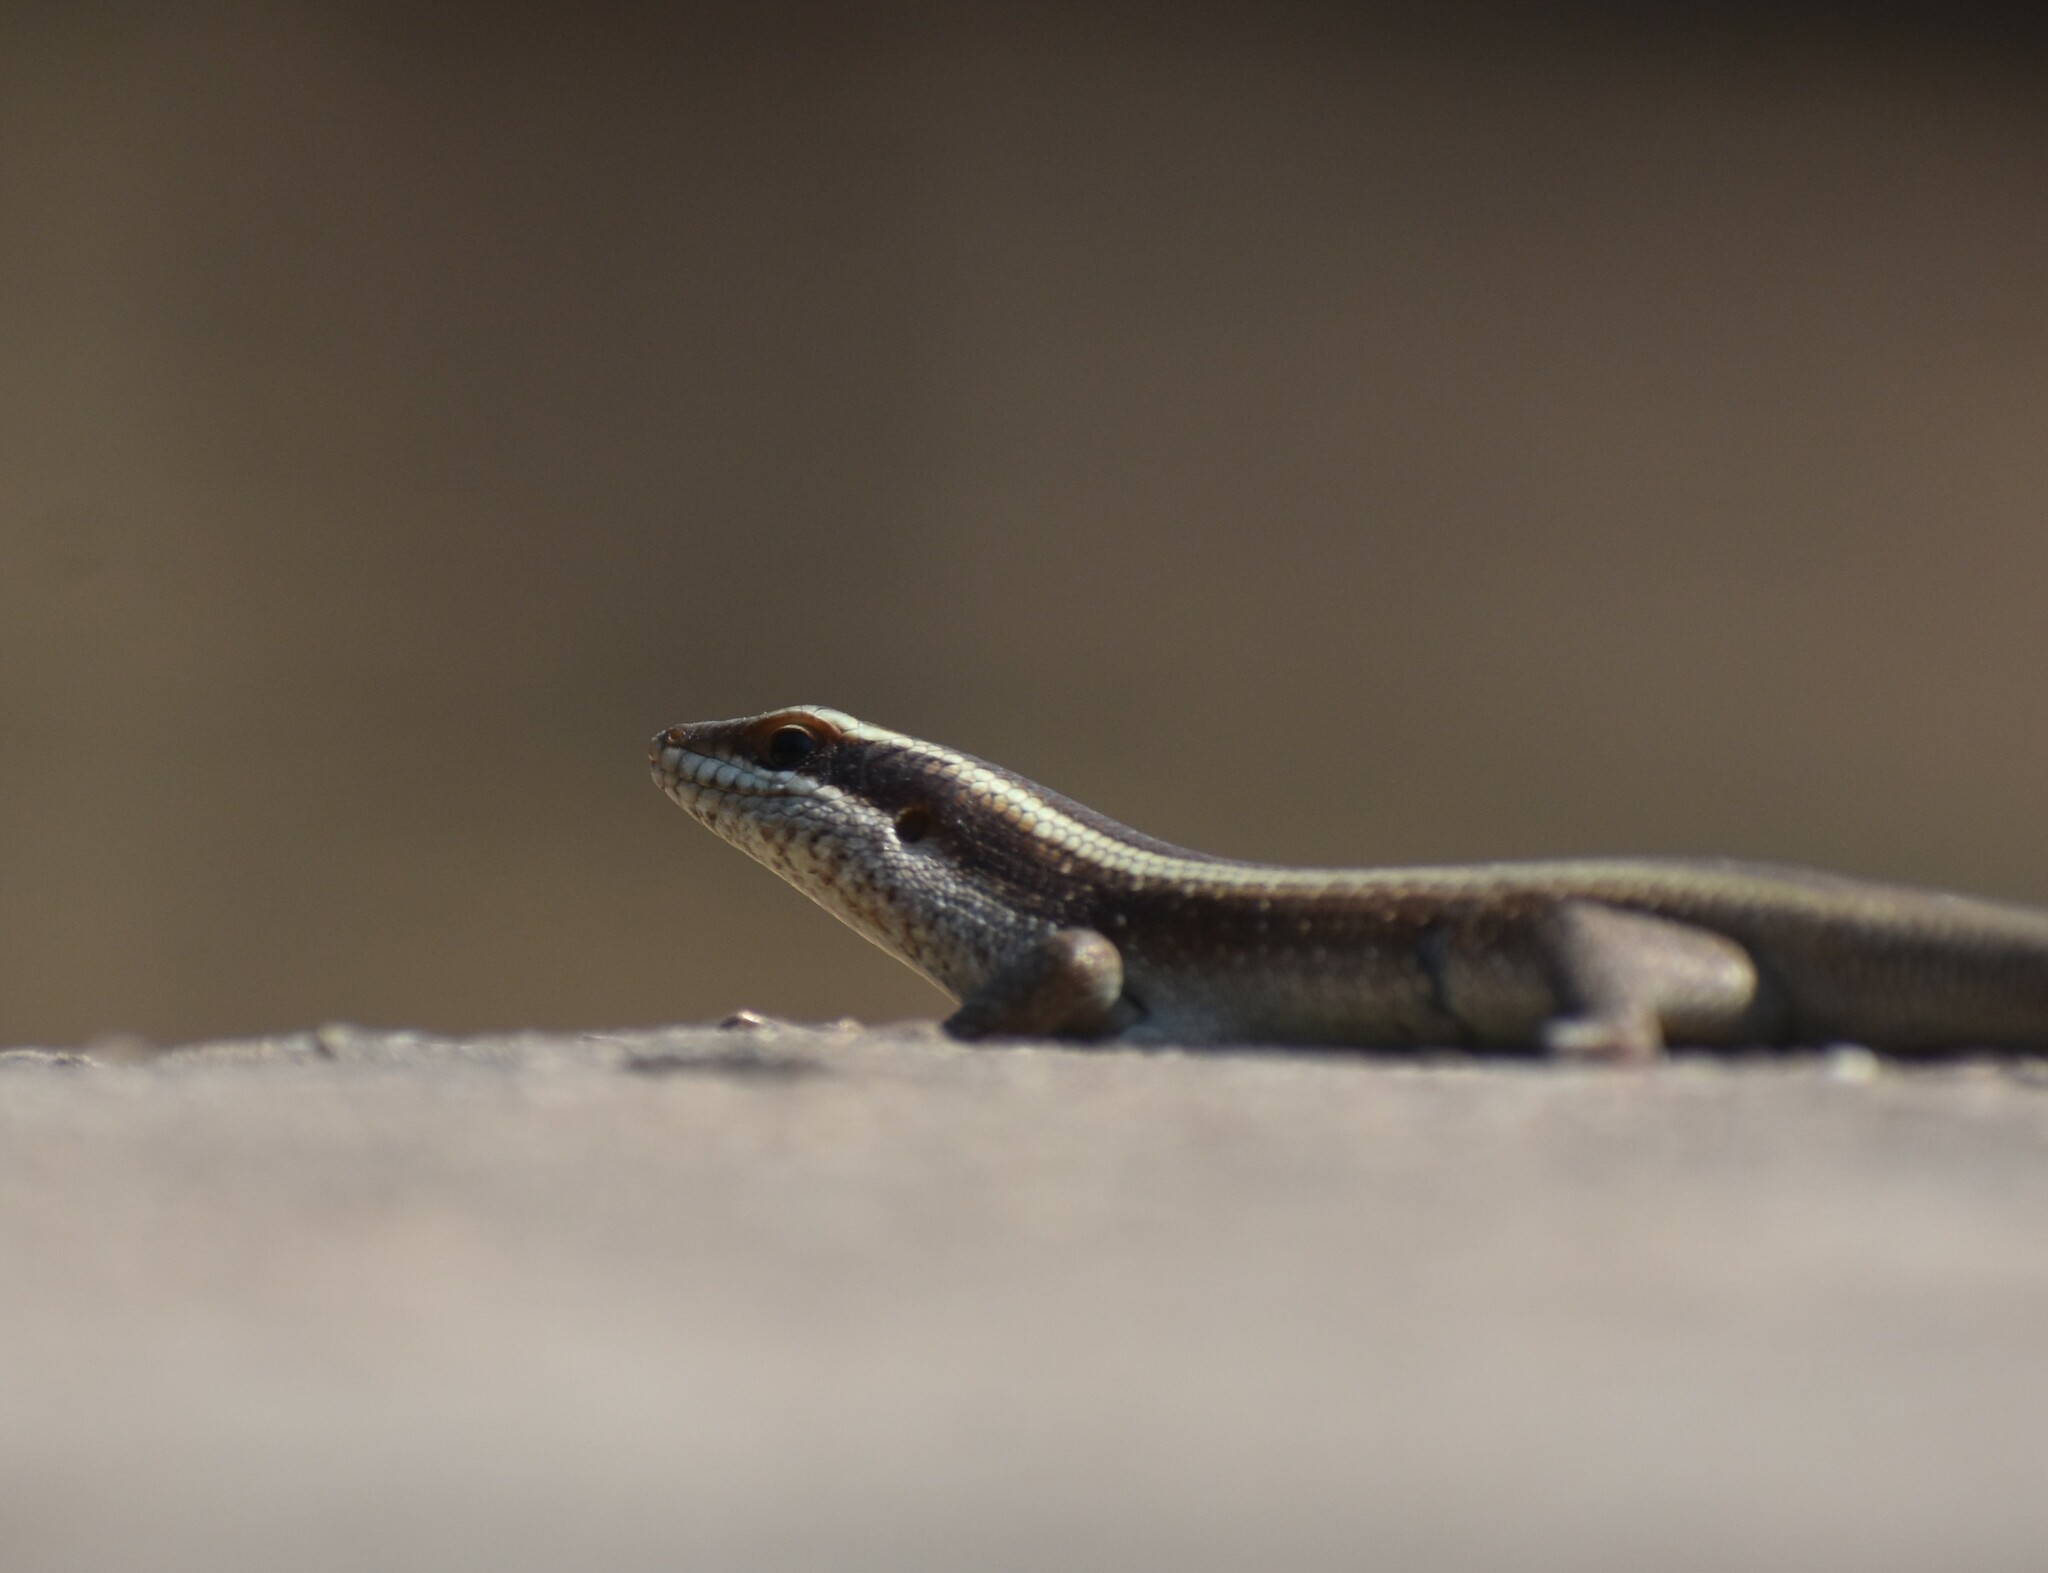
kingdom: Animalia
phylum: Chordata
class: Squamata
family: Scincidae
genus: Trachylepis
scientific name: Trachylepis striata
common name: African striped mabuya
